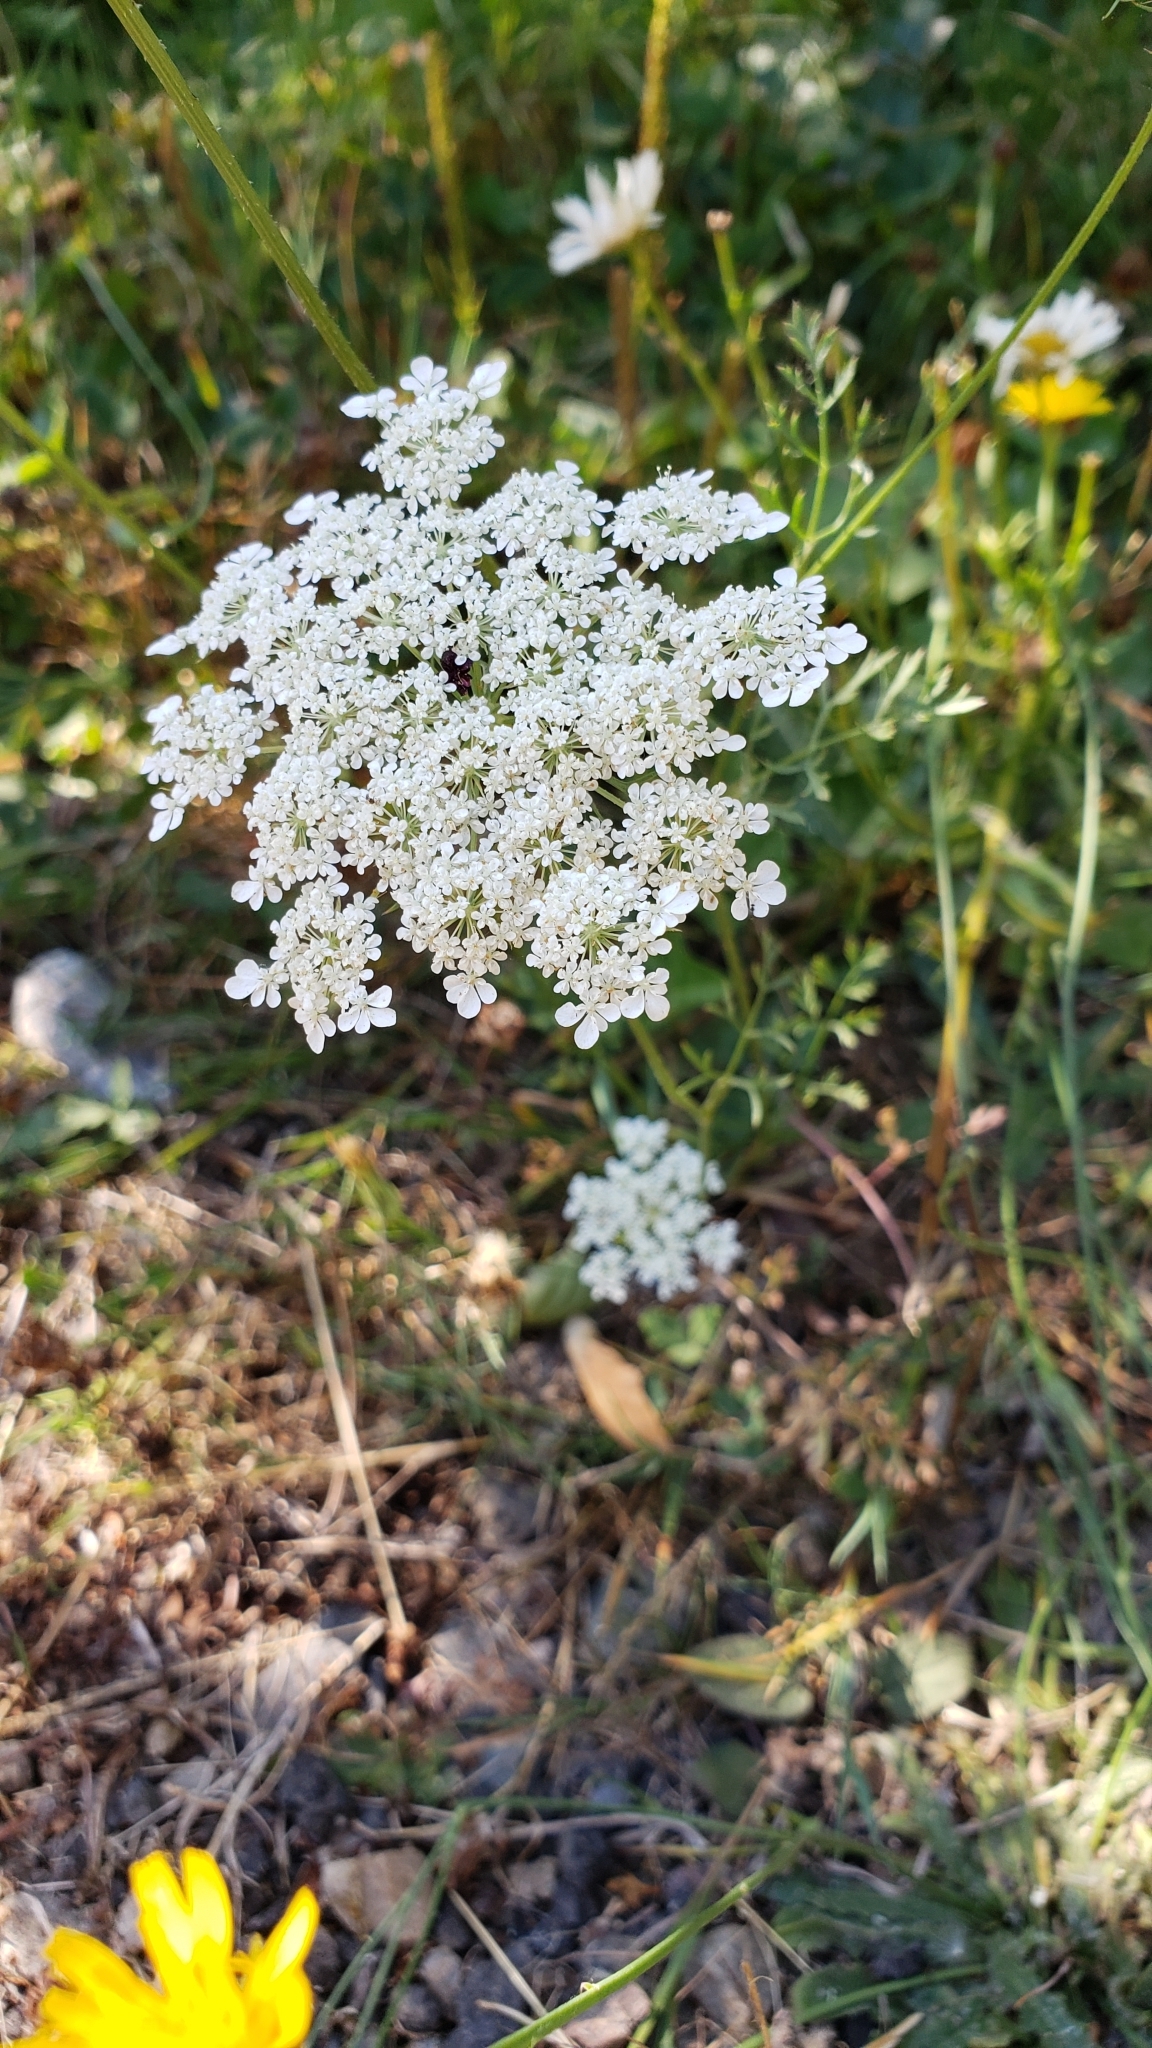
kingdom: Plantae
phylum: Tracheophyta
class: Magnoliopsida
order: Apiales
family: Apiaceae
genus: Daucus
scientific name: Daucus carota
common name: Wild carrot
